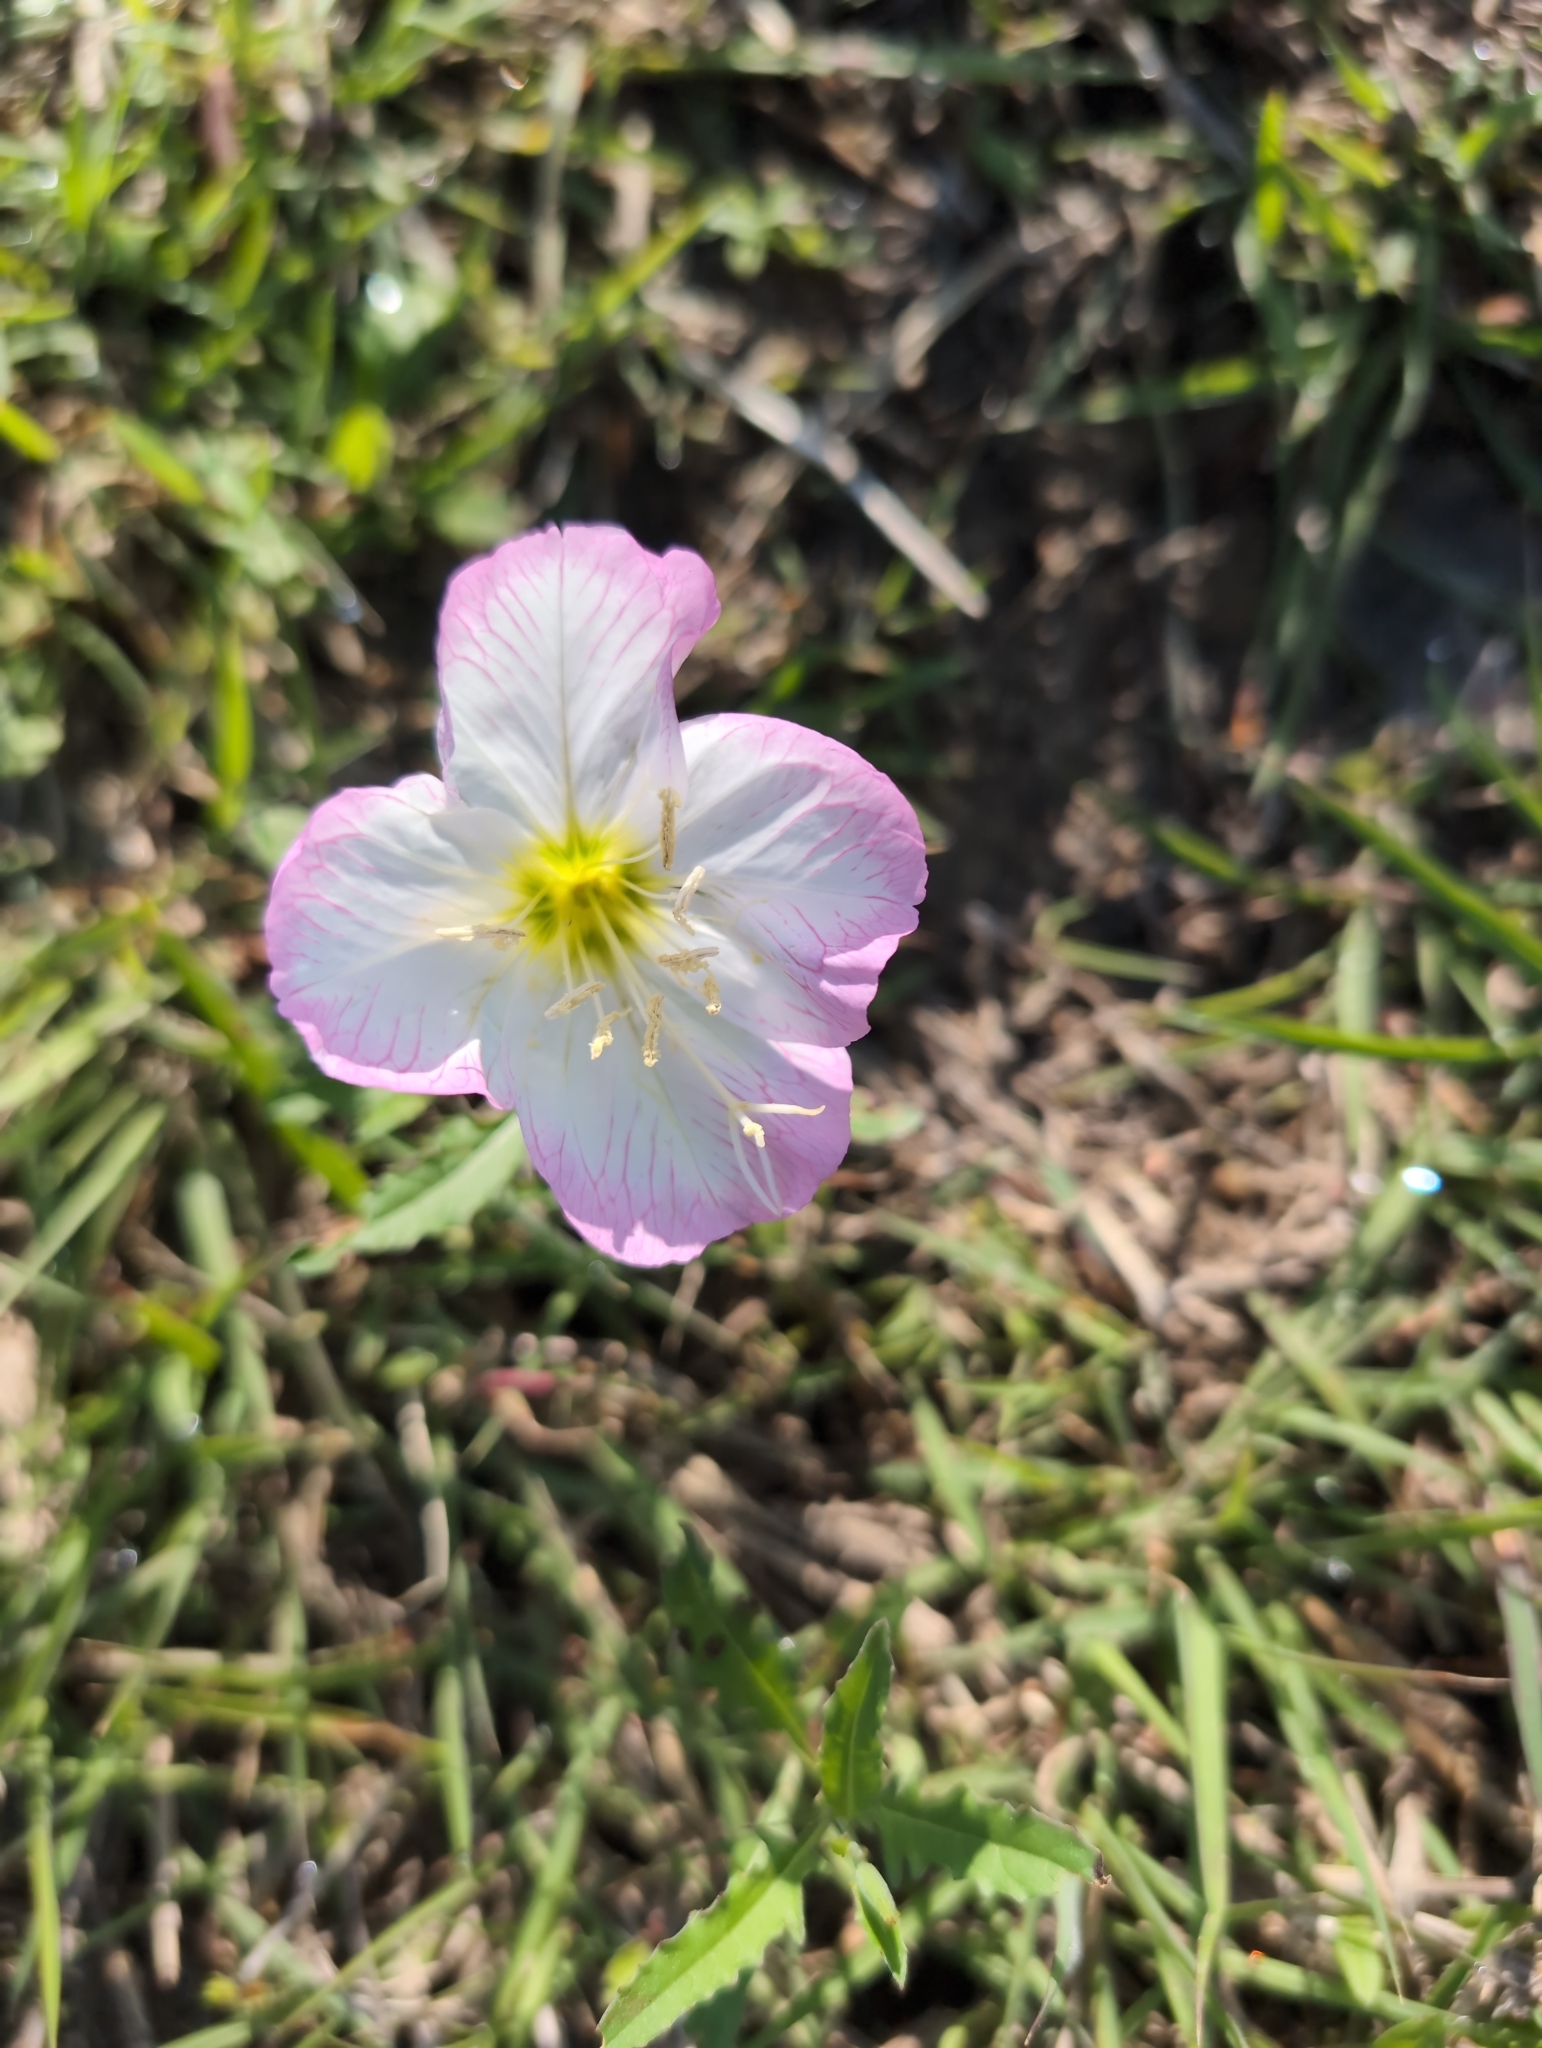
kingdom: Plantae
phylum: Tracheophyta
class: Magnoliopsida
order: Myrtales
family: Onagraceae
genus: Oenothera
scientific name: Oenothera speciosa
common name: White evening-primrose
